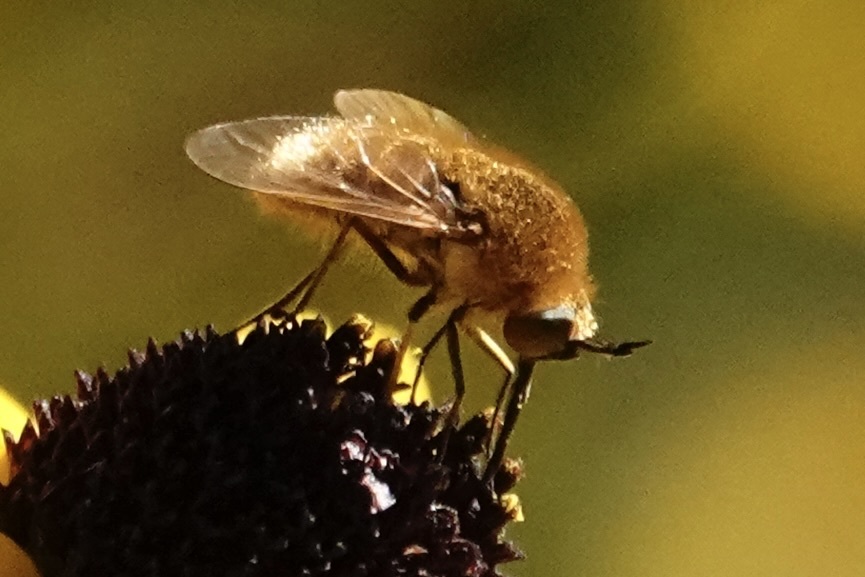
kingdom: Animalia
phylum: Arthropoda
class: Insecta
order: Diptera
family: Bombyliidae
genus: Sparnopolius
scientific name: Sparnopolius confusus
